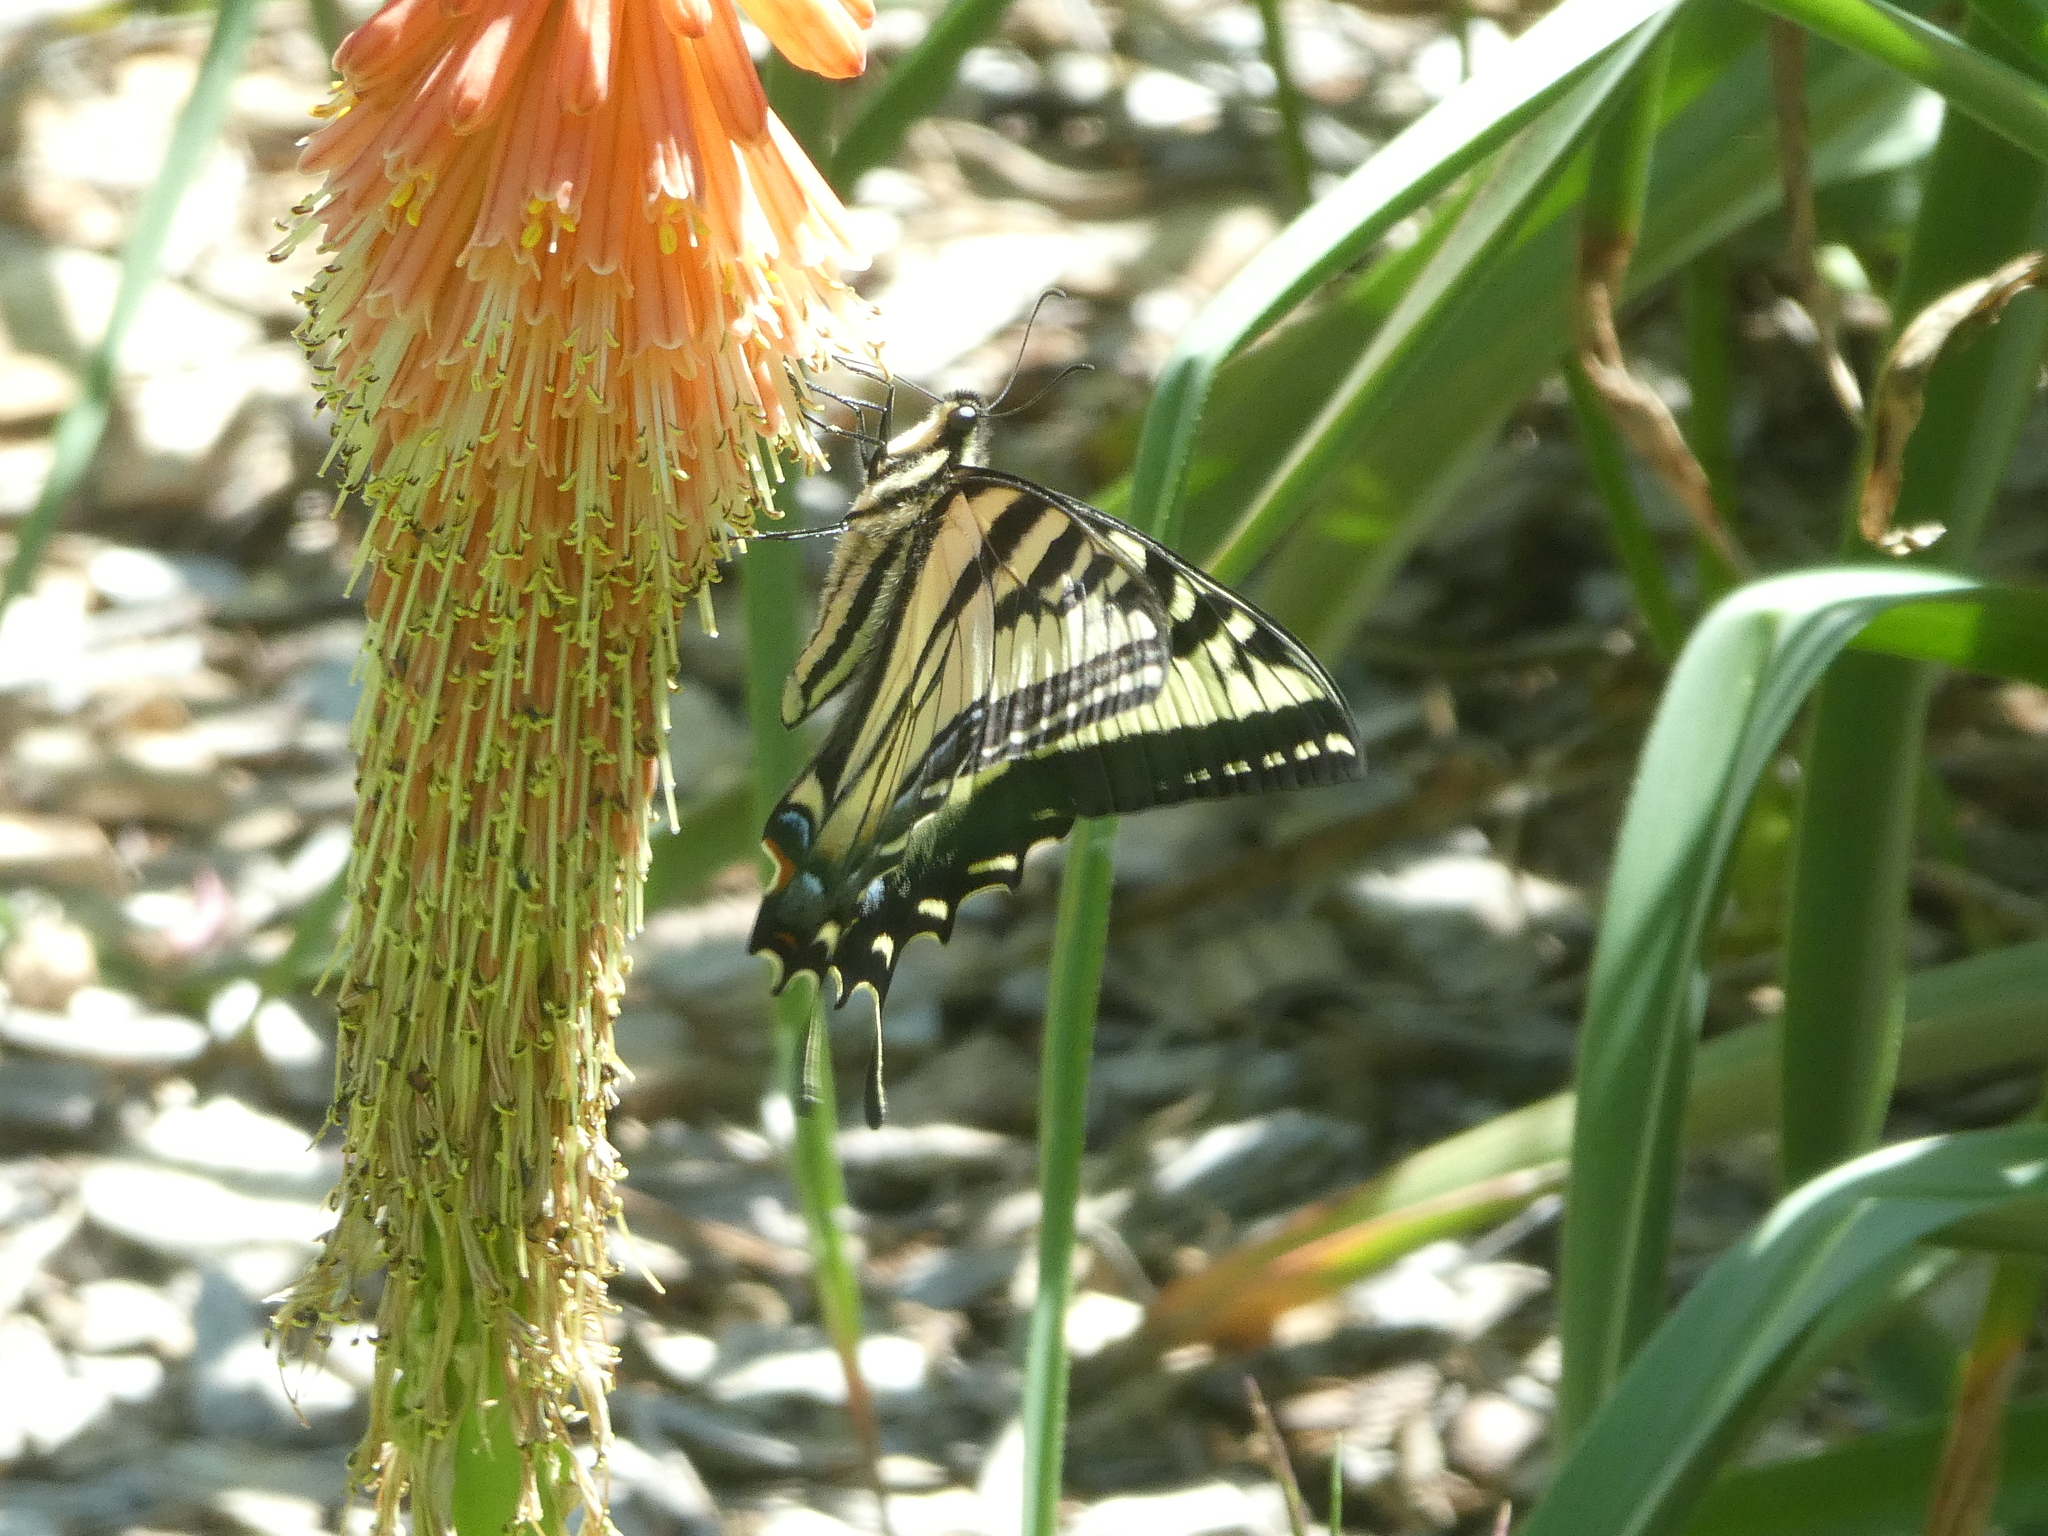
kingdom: Animalia
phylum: Arthropoda
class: Insecta
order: Lepidoptera
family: Papilionidae
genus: Papilio
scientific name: Papilio rutulus
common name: Western tiger swallowtail
